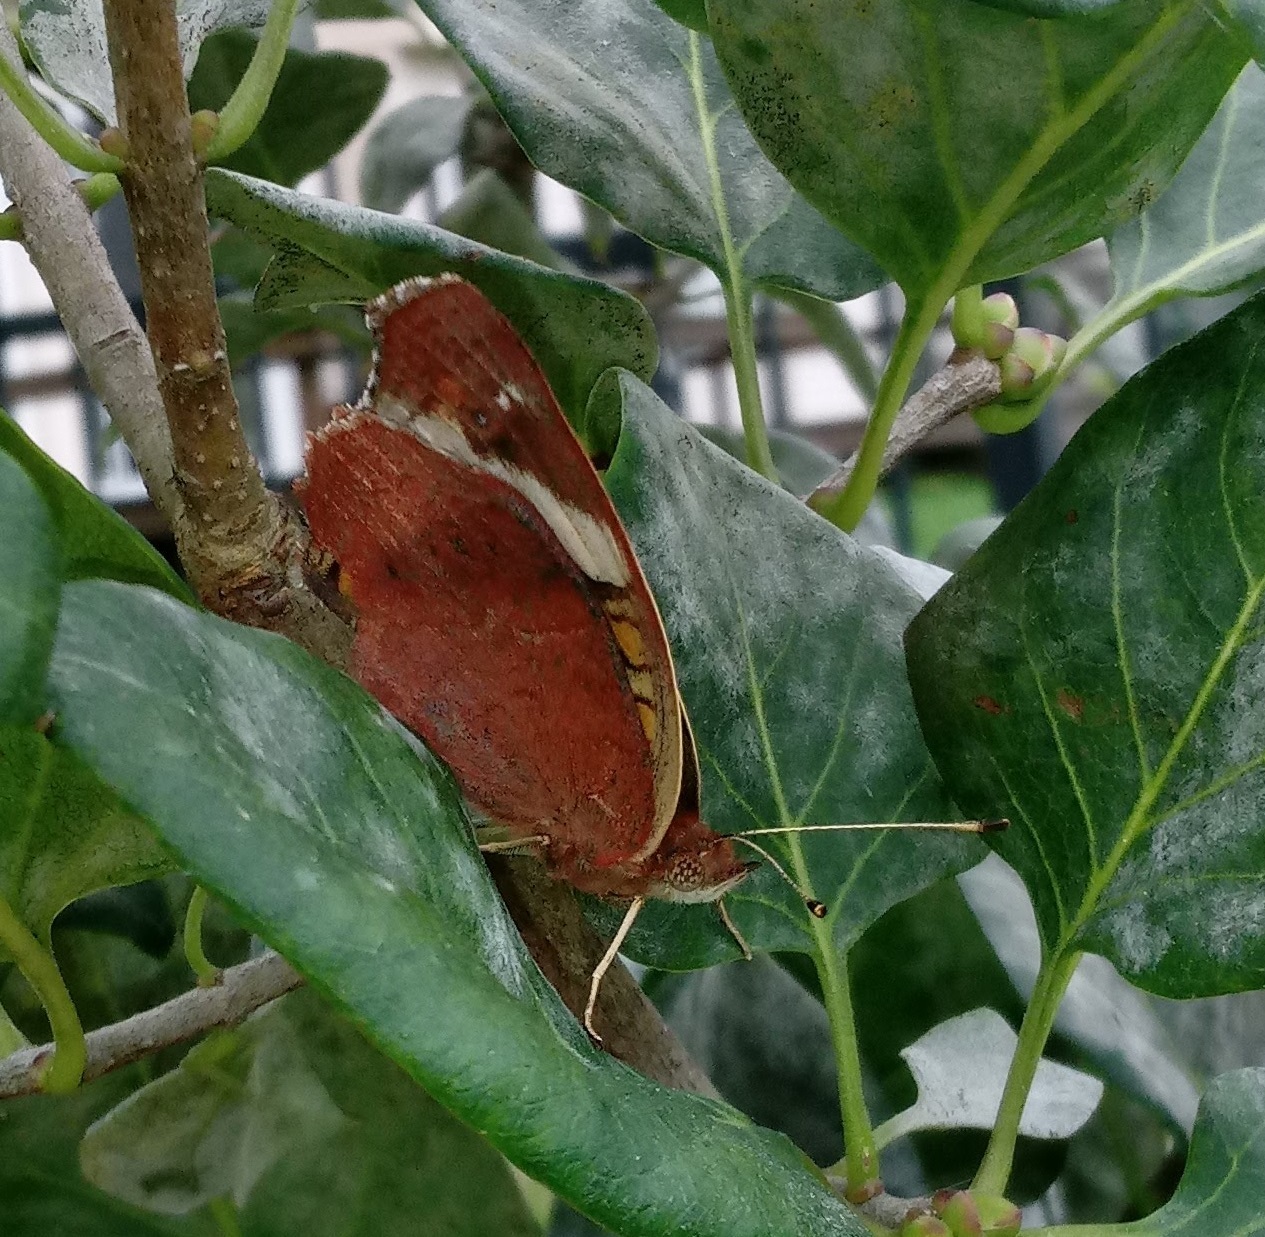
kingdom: Animalia
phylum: Arthropoda
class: Insecta
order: Lepidoptera
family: Nymphalidae
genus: Junonia
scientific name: Junonia coenia
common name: Common buckeye
